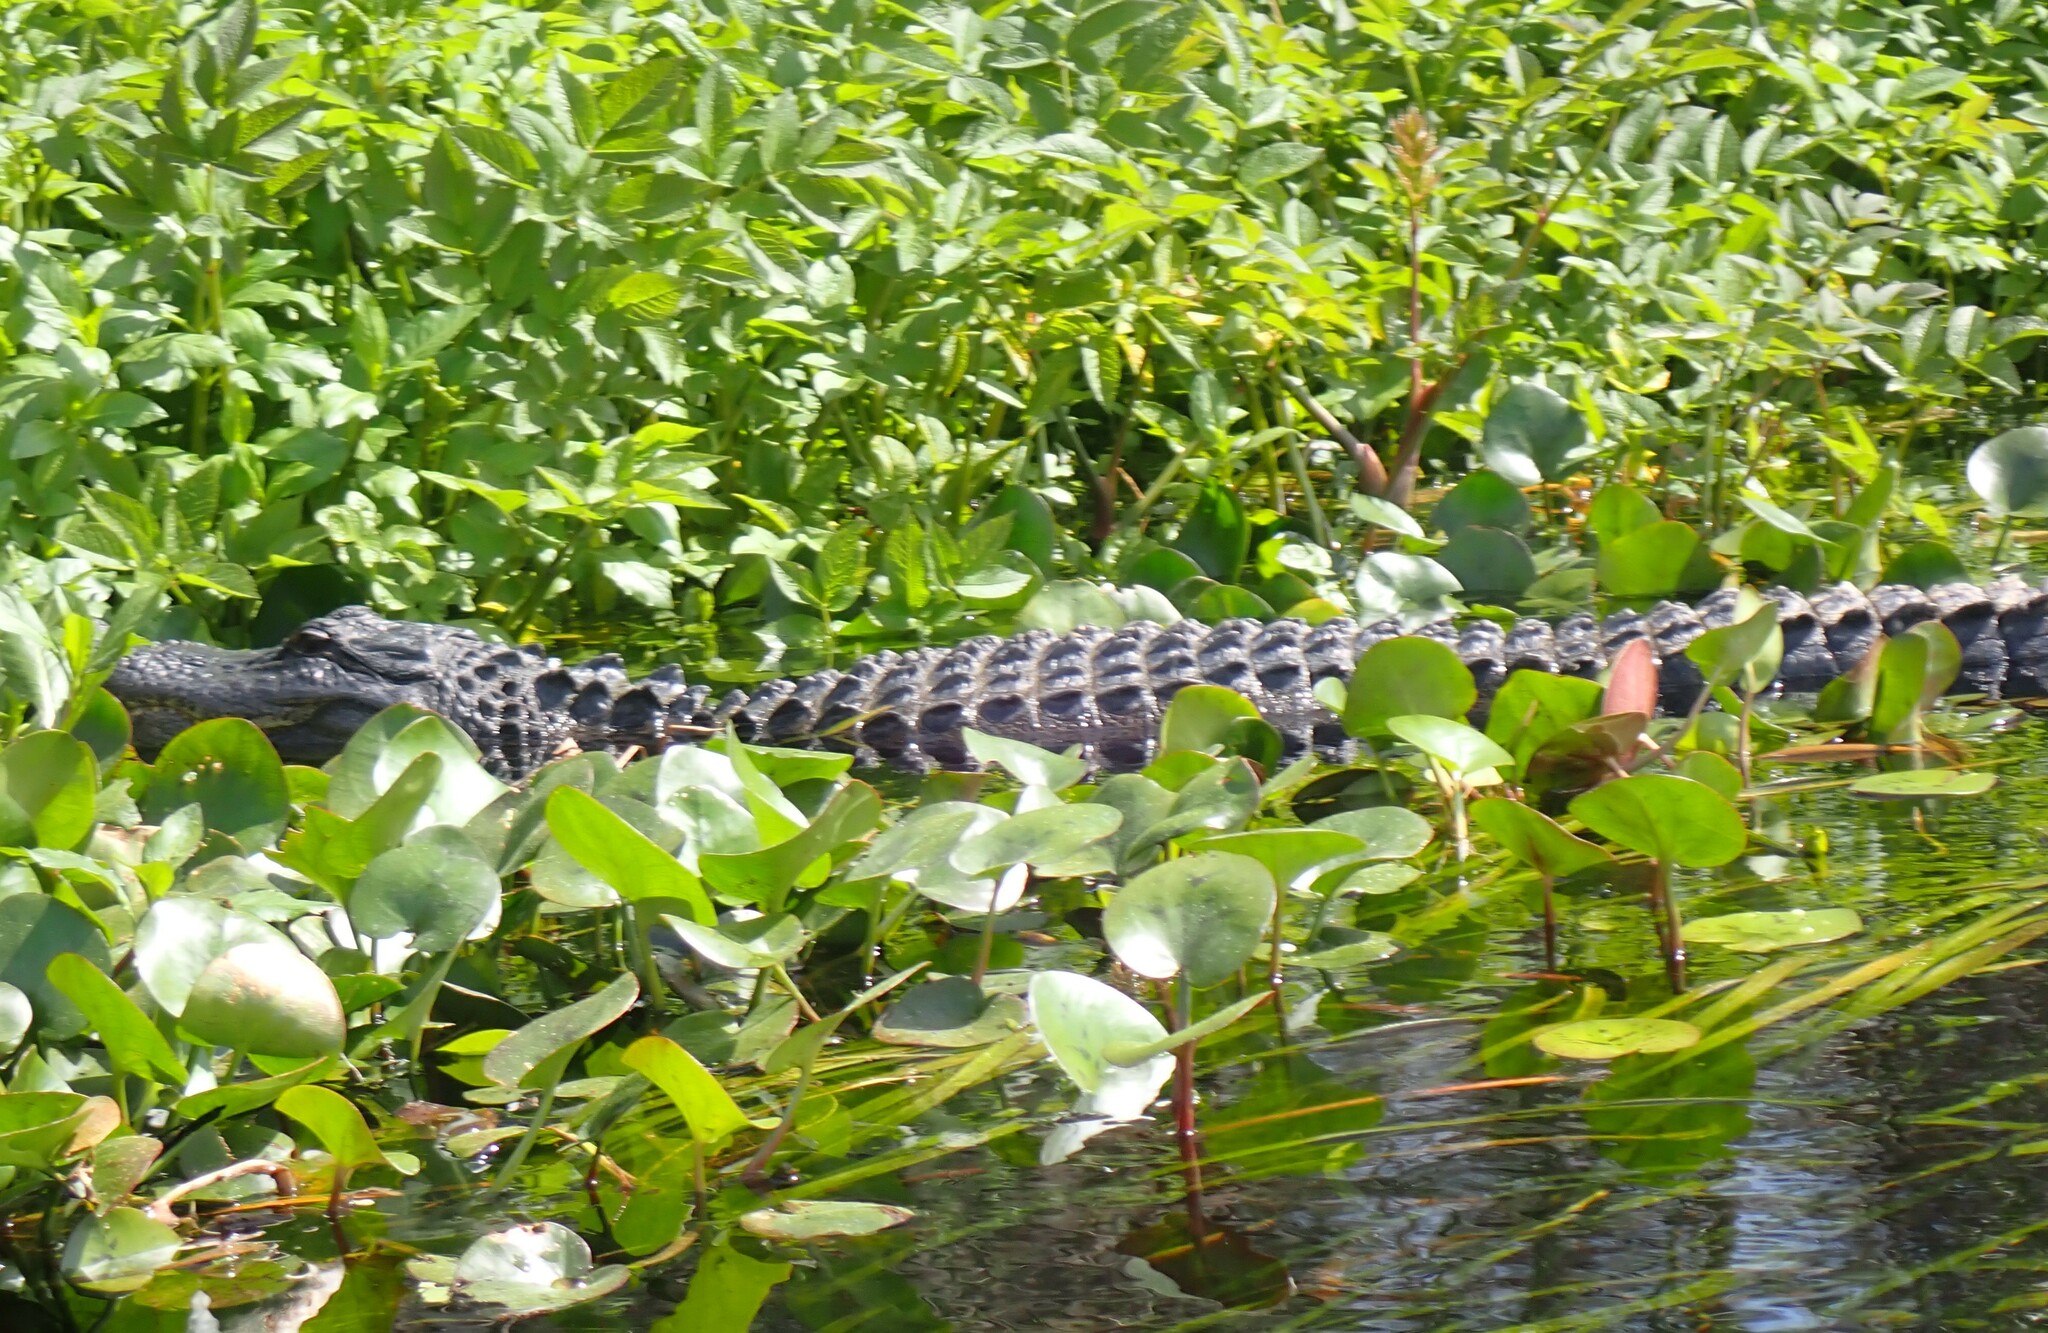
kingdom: Animalia
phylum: Chordata
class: Crocodylia
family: Alligatoridae
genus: Alligator
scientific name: Alligator mississippiensis
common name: American alligator
